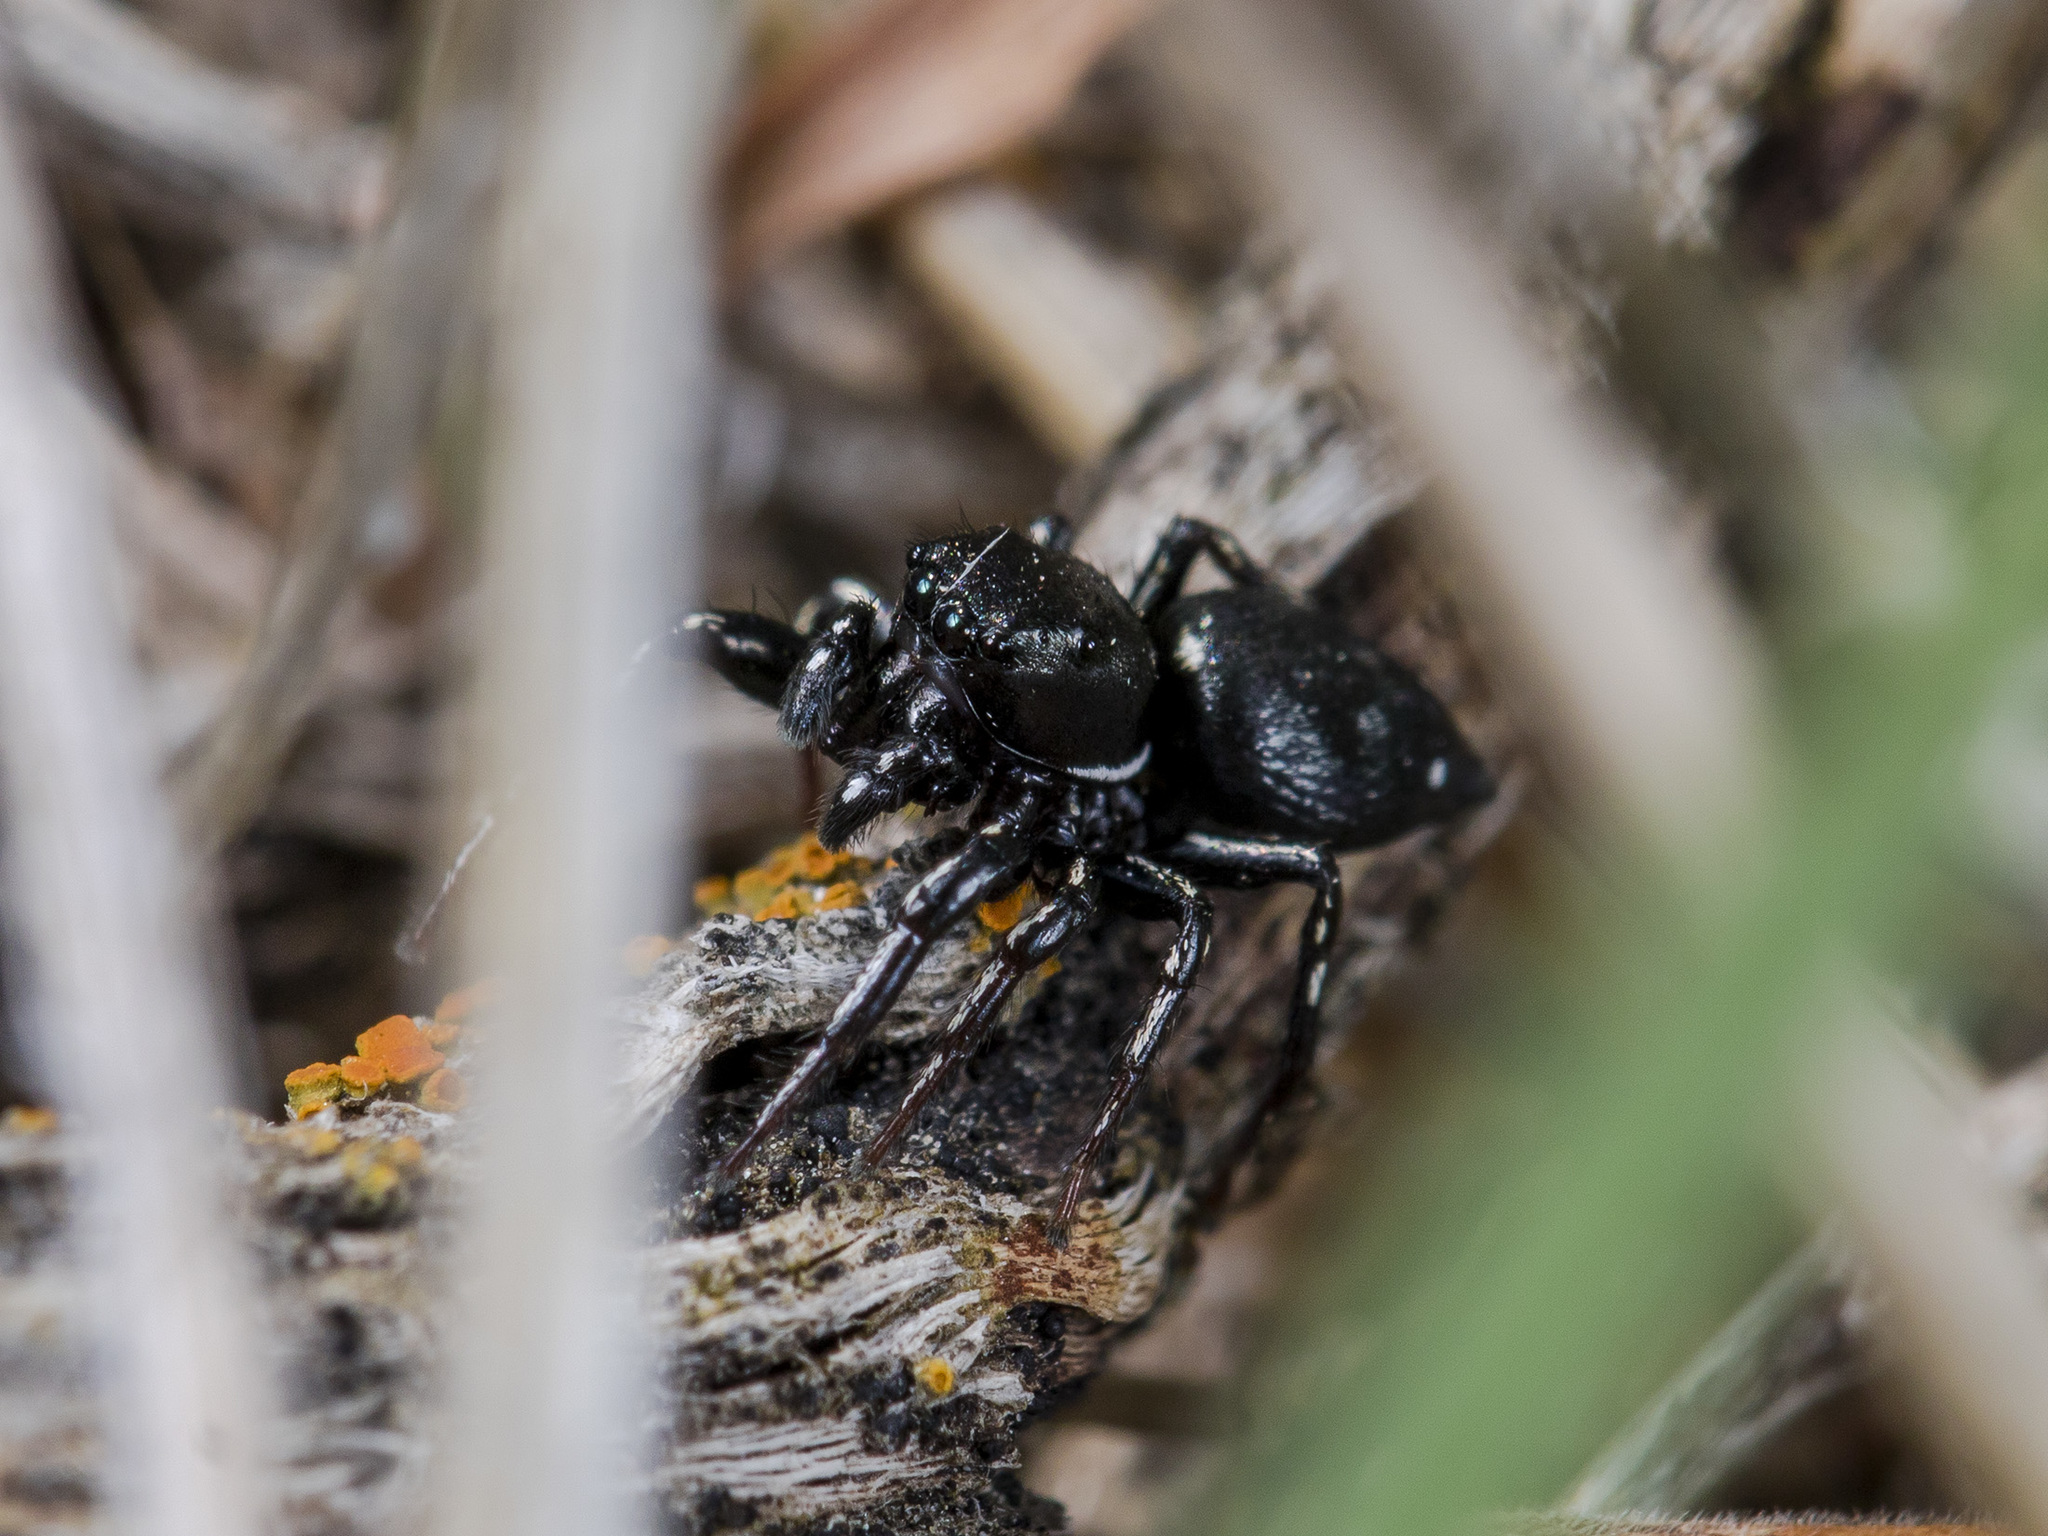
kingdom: Animalia
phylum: Arthropoda
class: Arachnida
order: Araneae
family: Salticidae
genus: Heliophanus
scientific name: Heliophanus chovdensis
